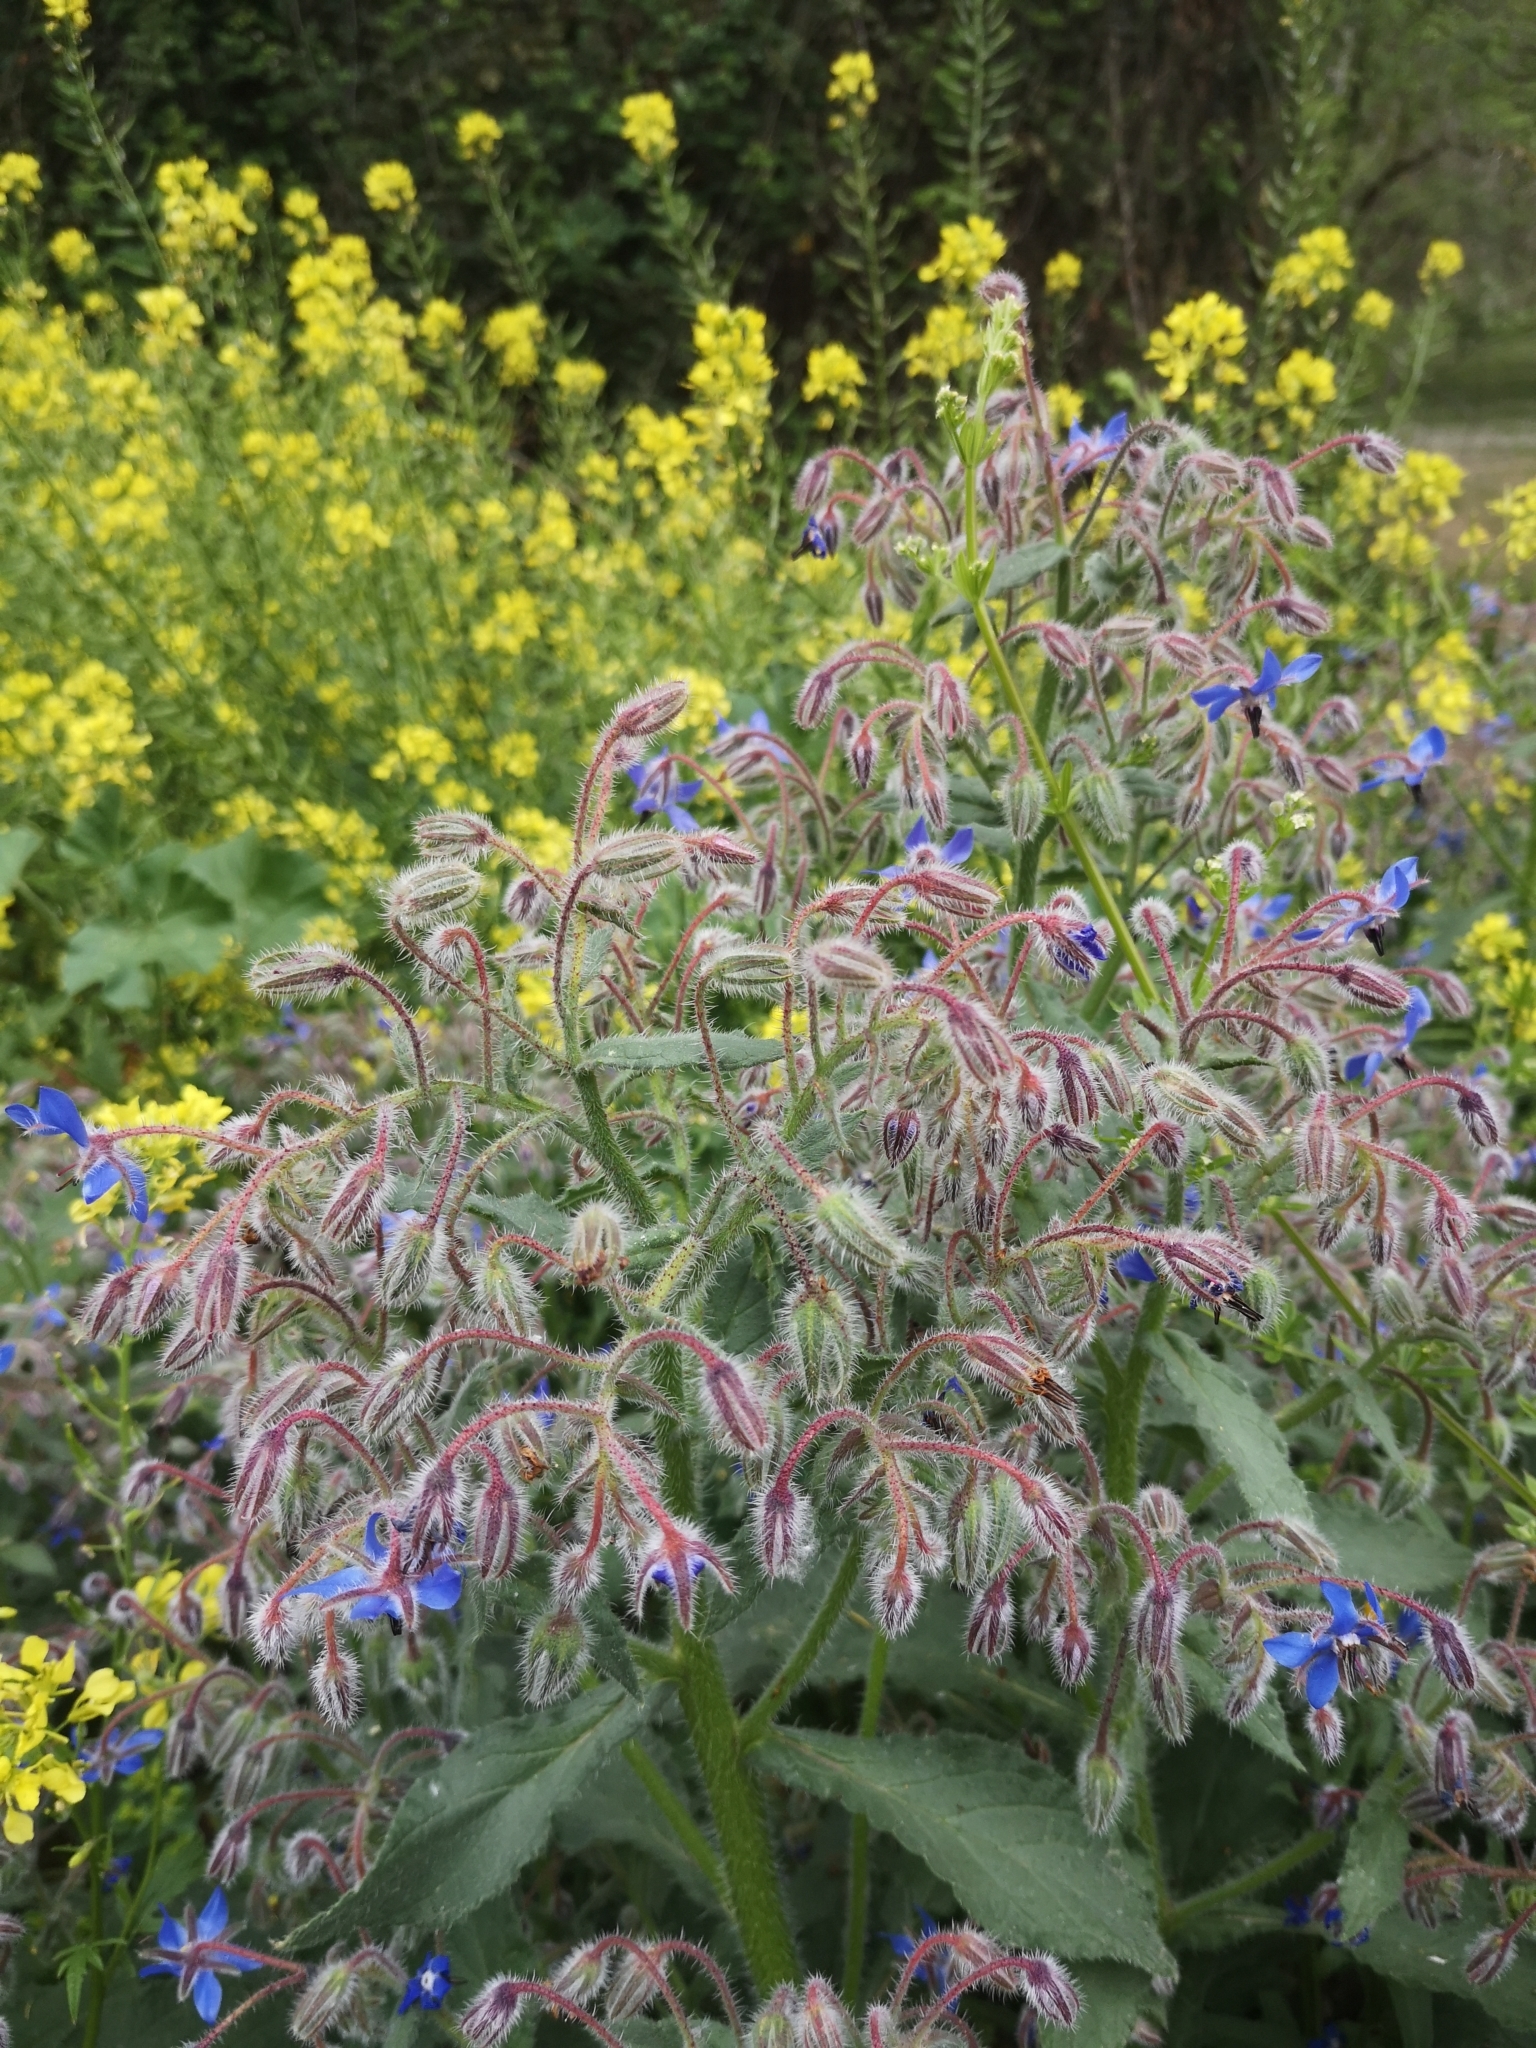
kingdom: Plantae
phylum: Tracheophyta
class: Magnoliopsida
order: Boraginales
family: Boraginaceae
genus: Borago
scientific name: Borago officinalis
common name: Borage
